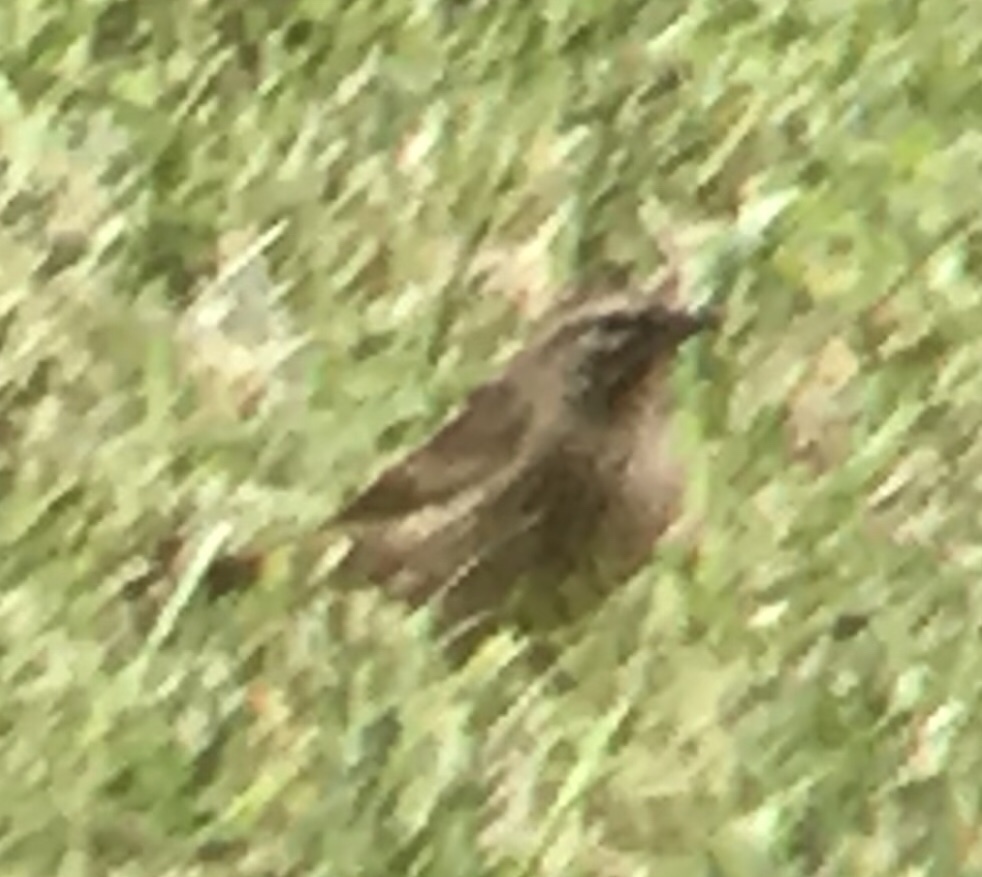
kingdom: Animalia
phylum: Chordata
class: Aves
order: Passeriformes
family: Parulidae
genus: Setophaga
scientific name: Setophaga palmarum
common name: Palm warbler
